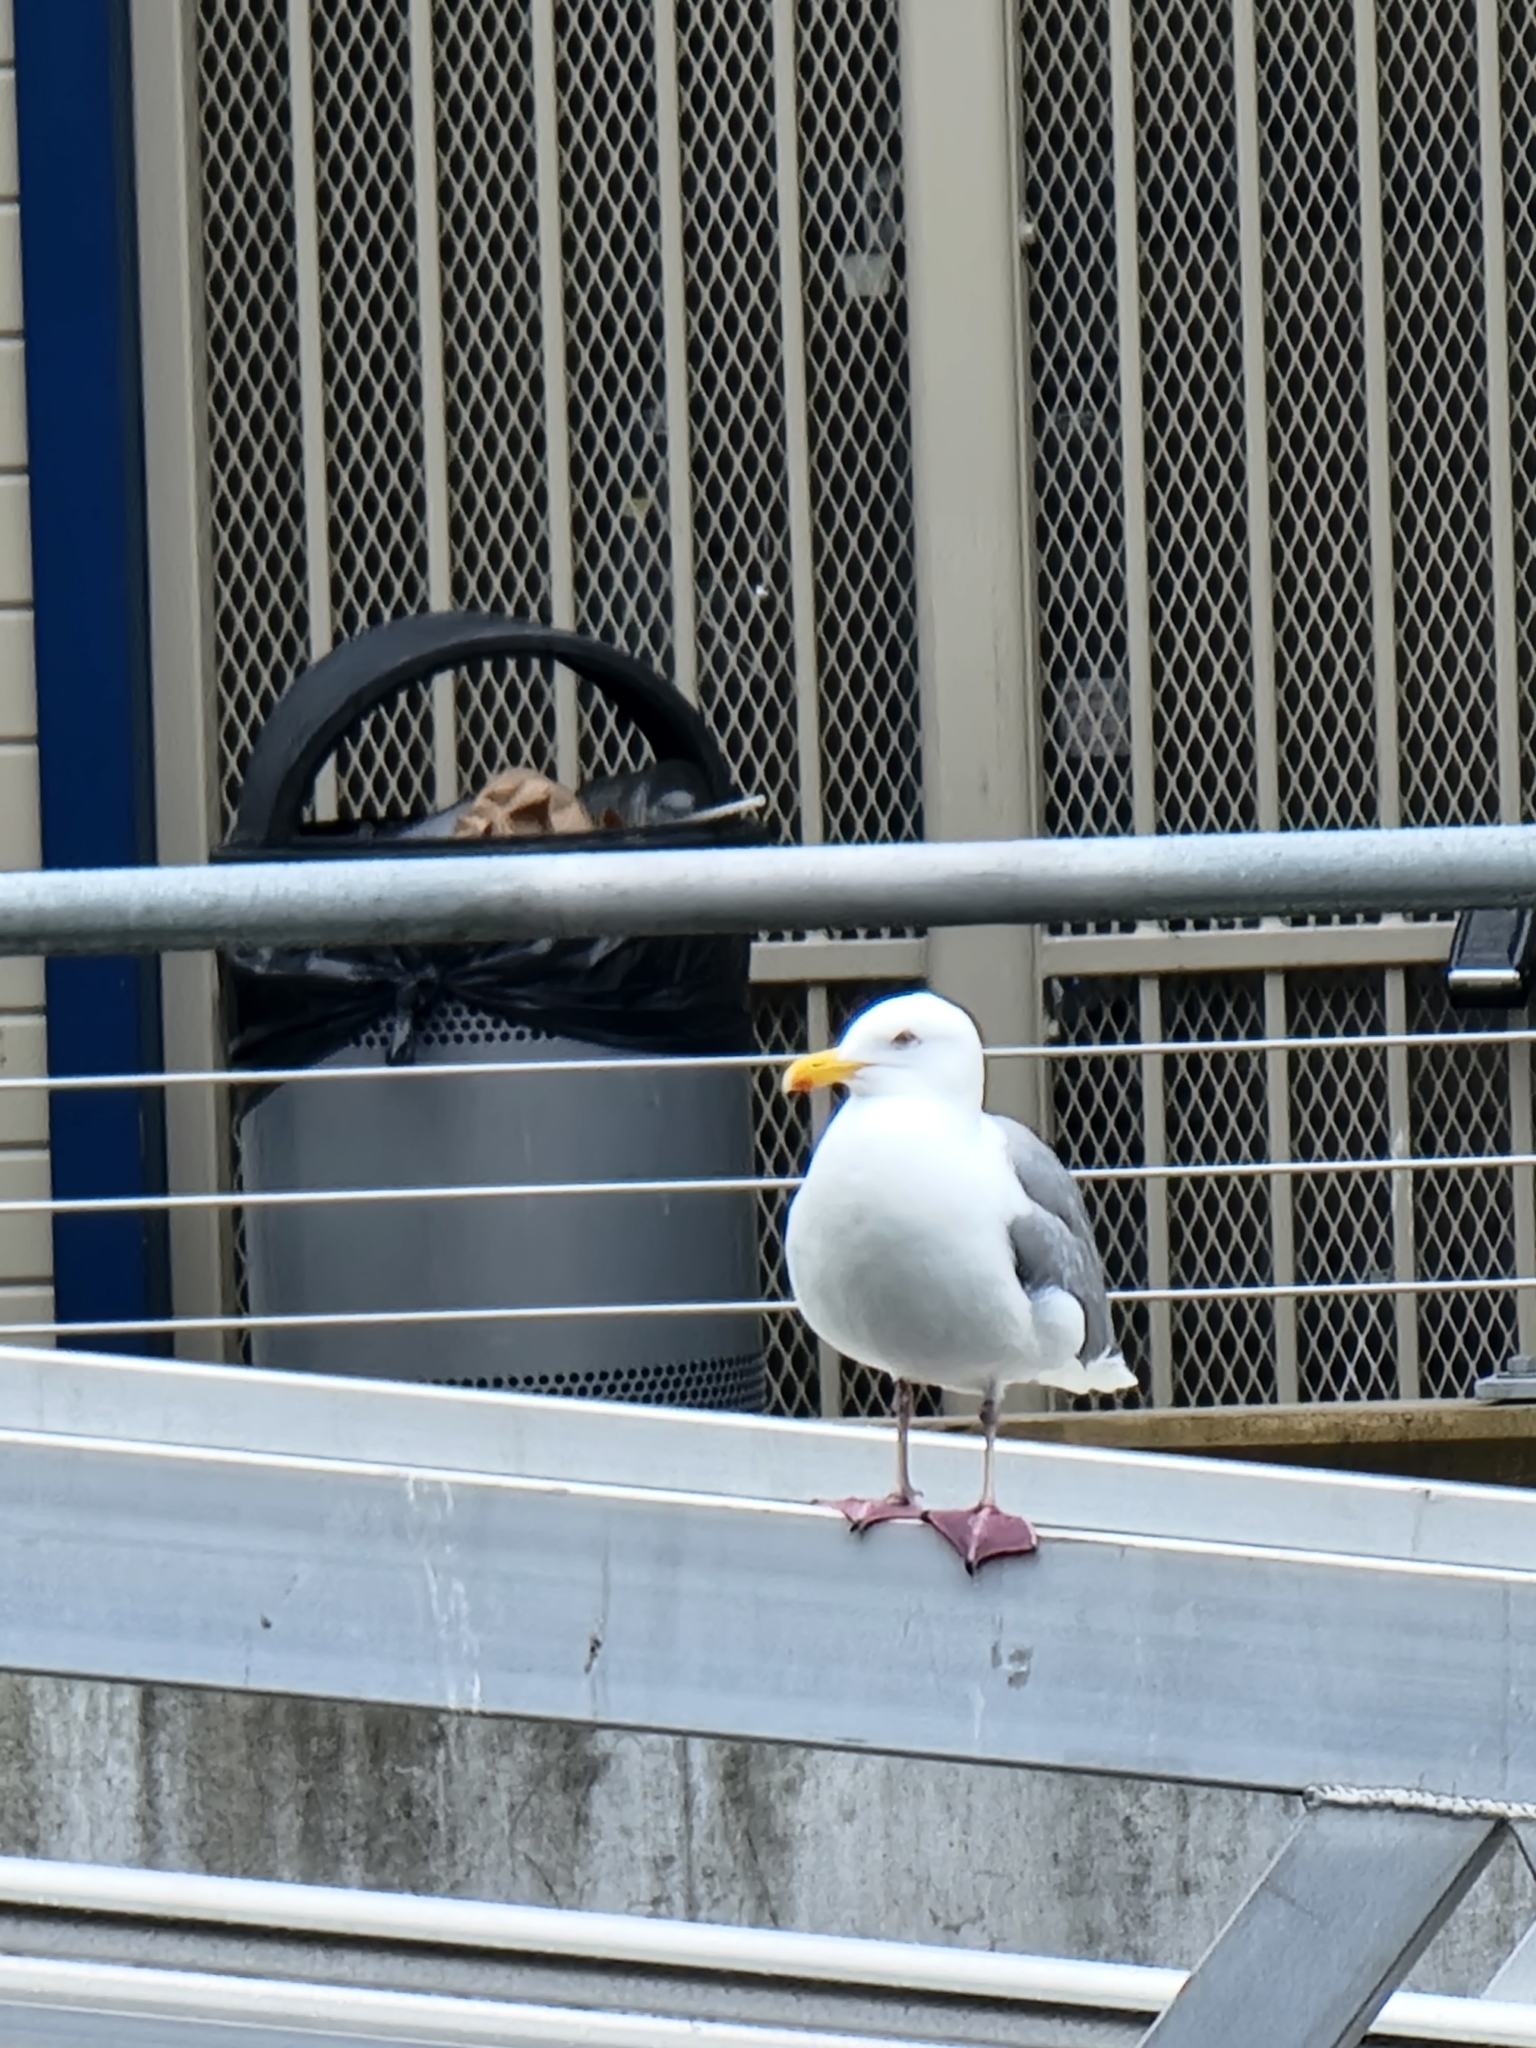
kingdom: Animalia
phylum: Chordata
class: Aves
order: Charadriiformes
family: Laridae
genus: Larus
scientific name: Larus
